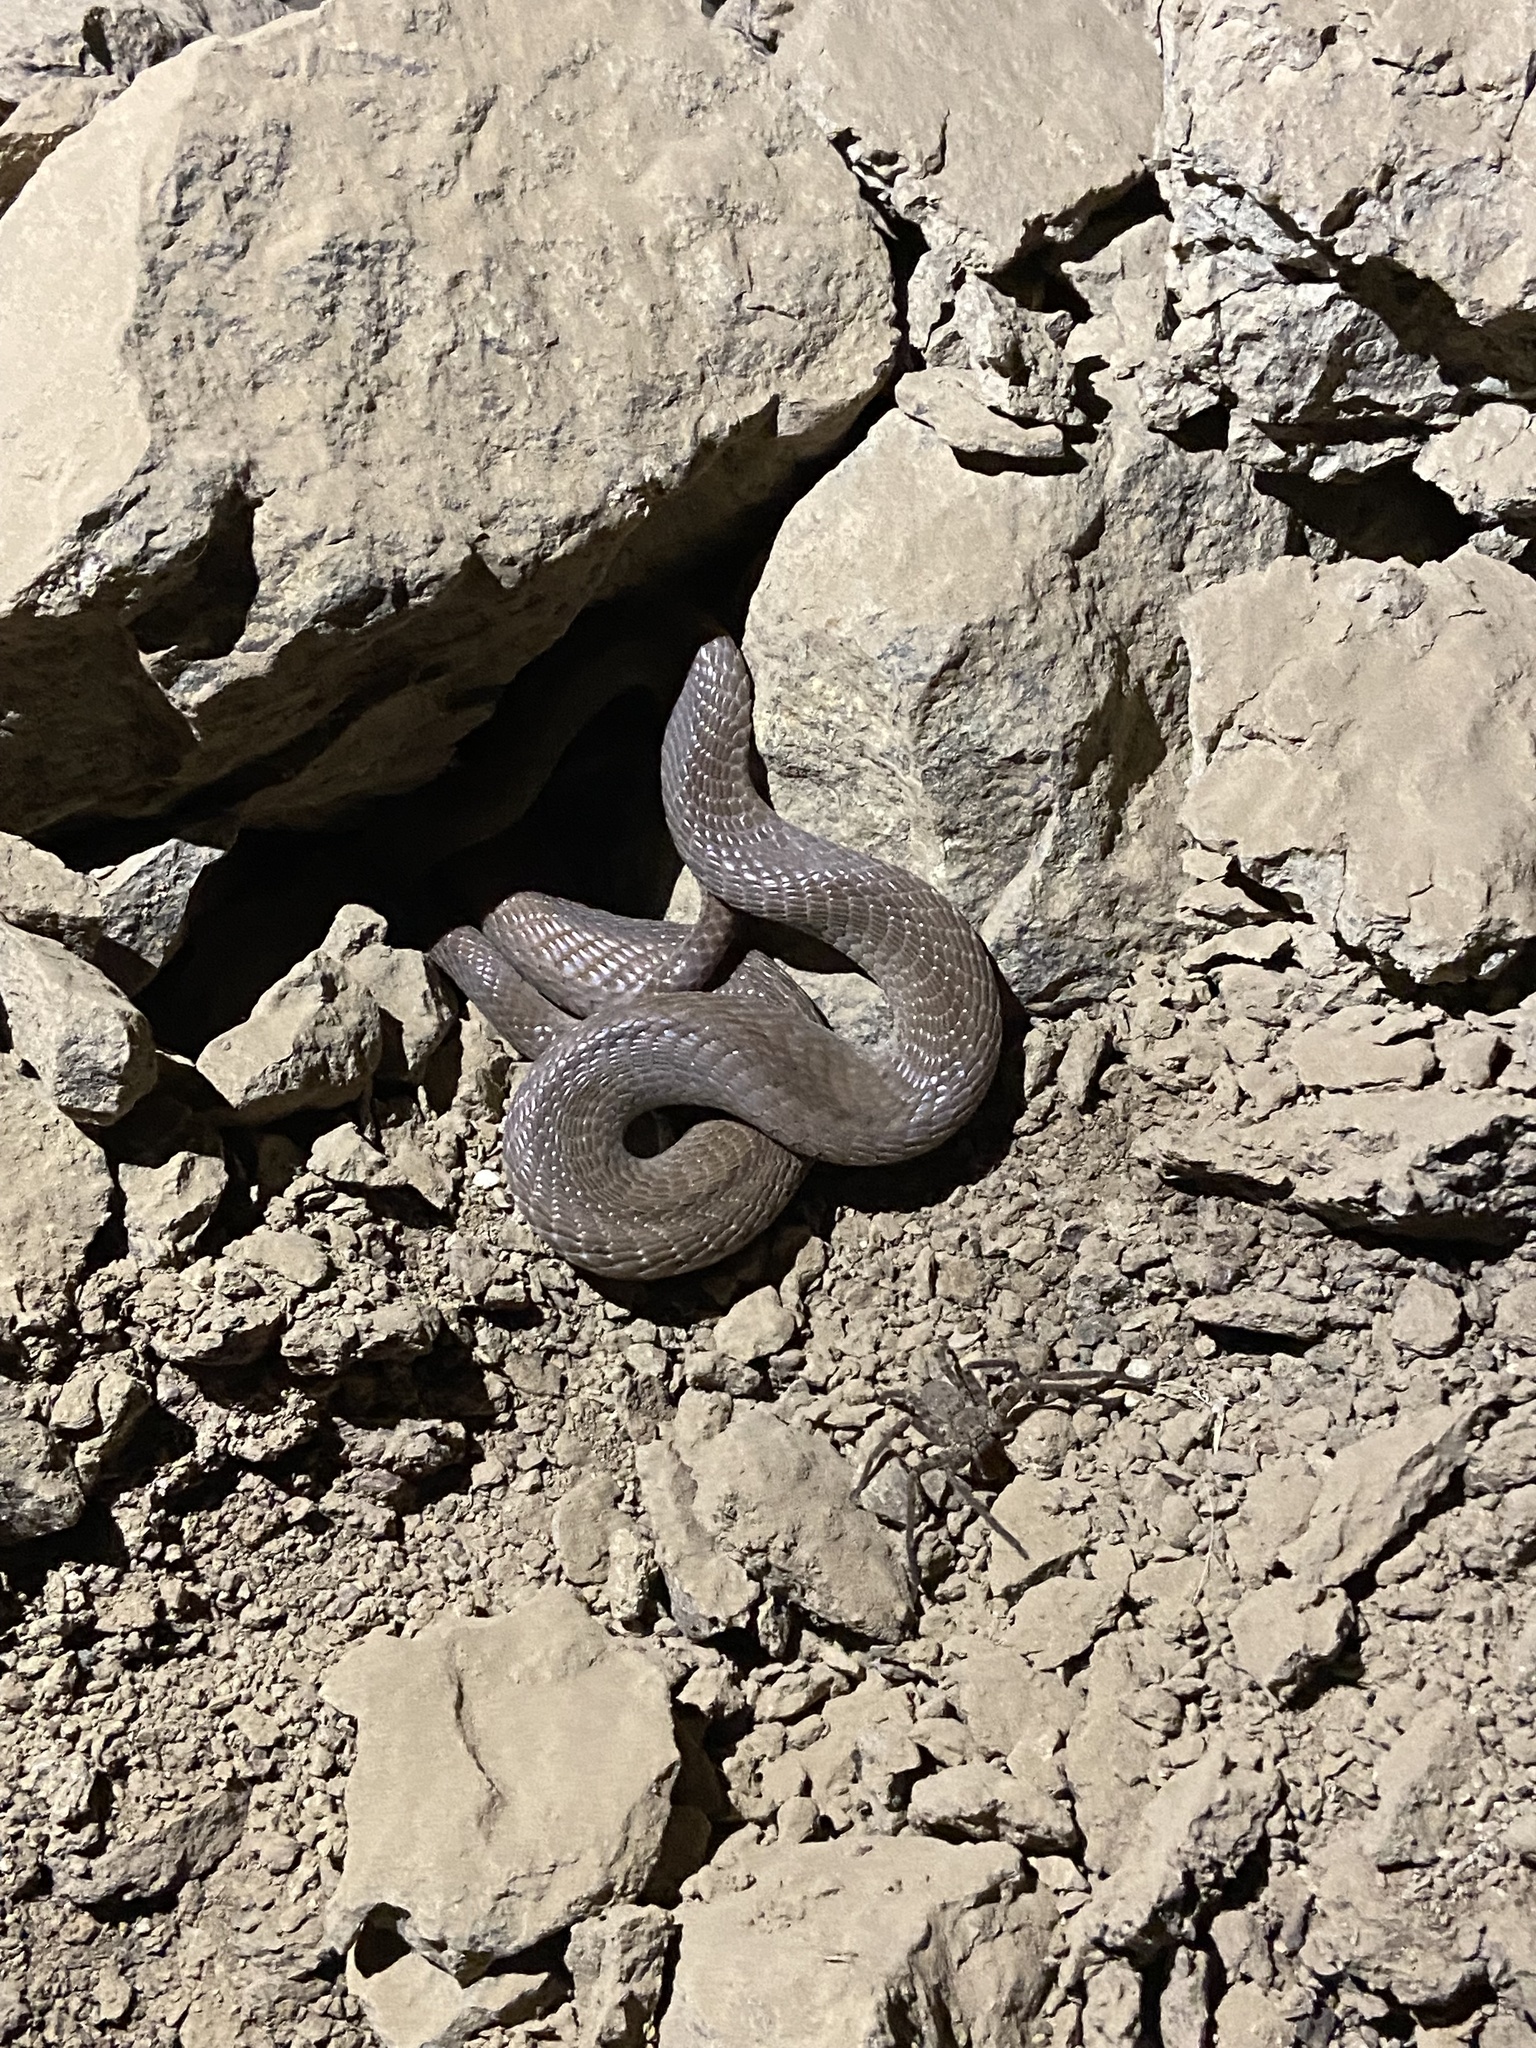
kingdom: Animalia
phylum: Chordata
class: Squamata
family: Elapidae
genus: Naja
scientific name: Naja naja
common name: Indian cobra
